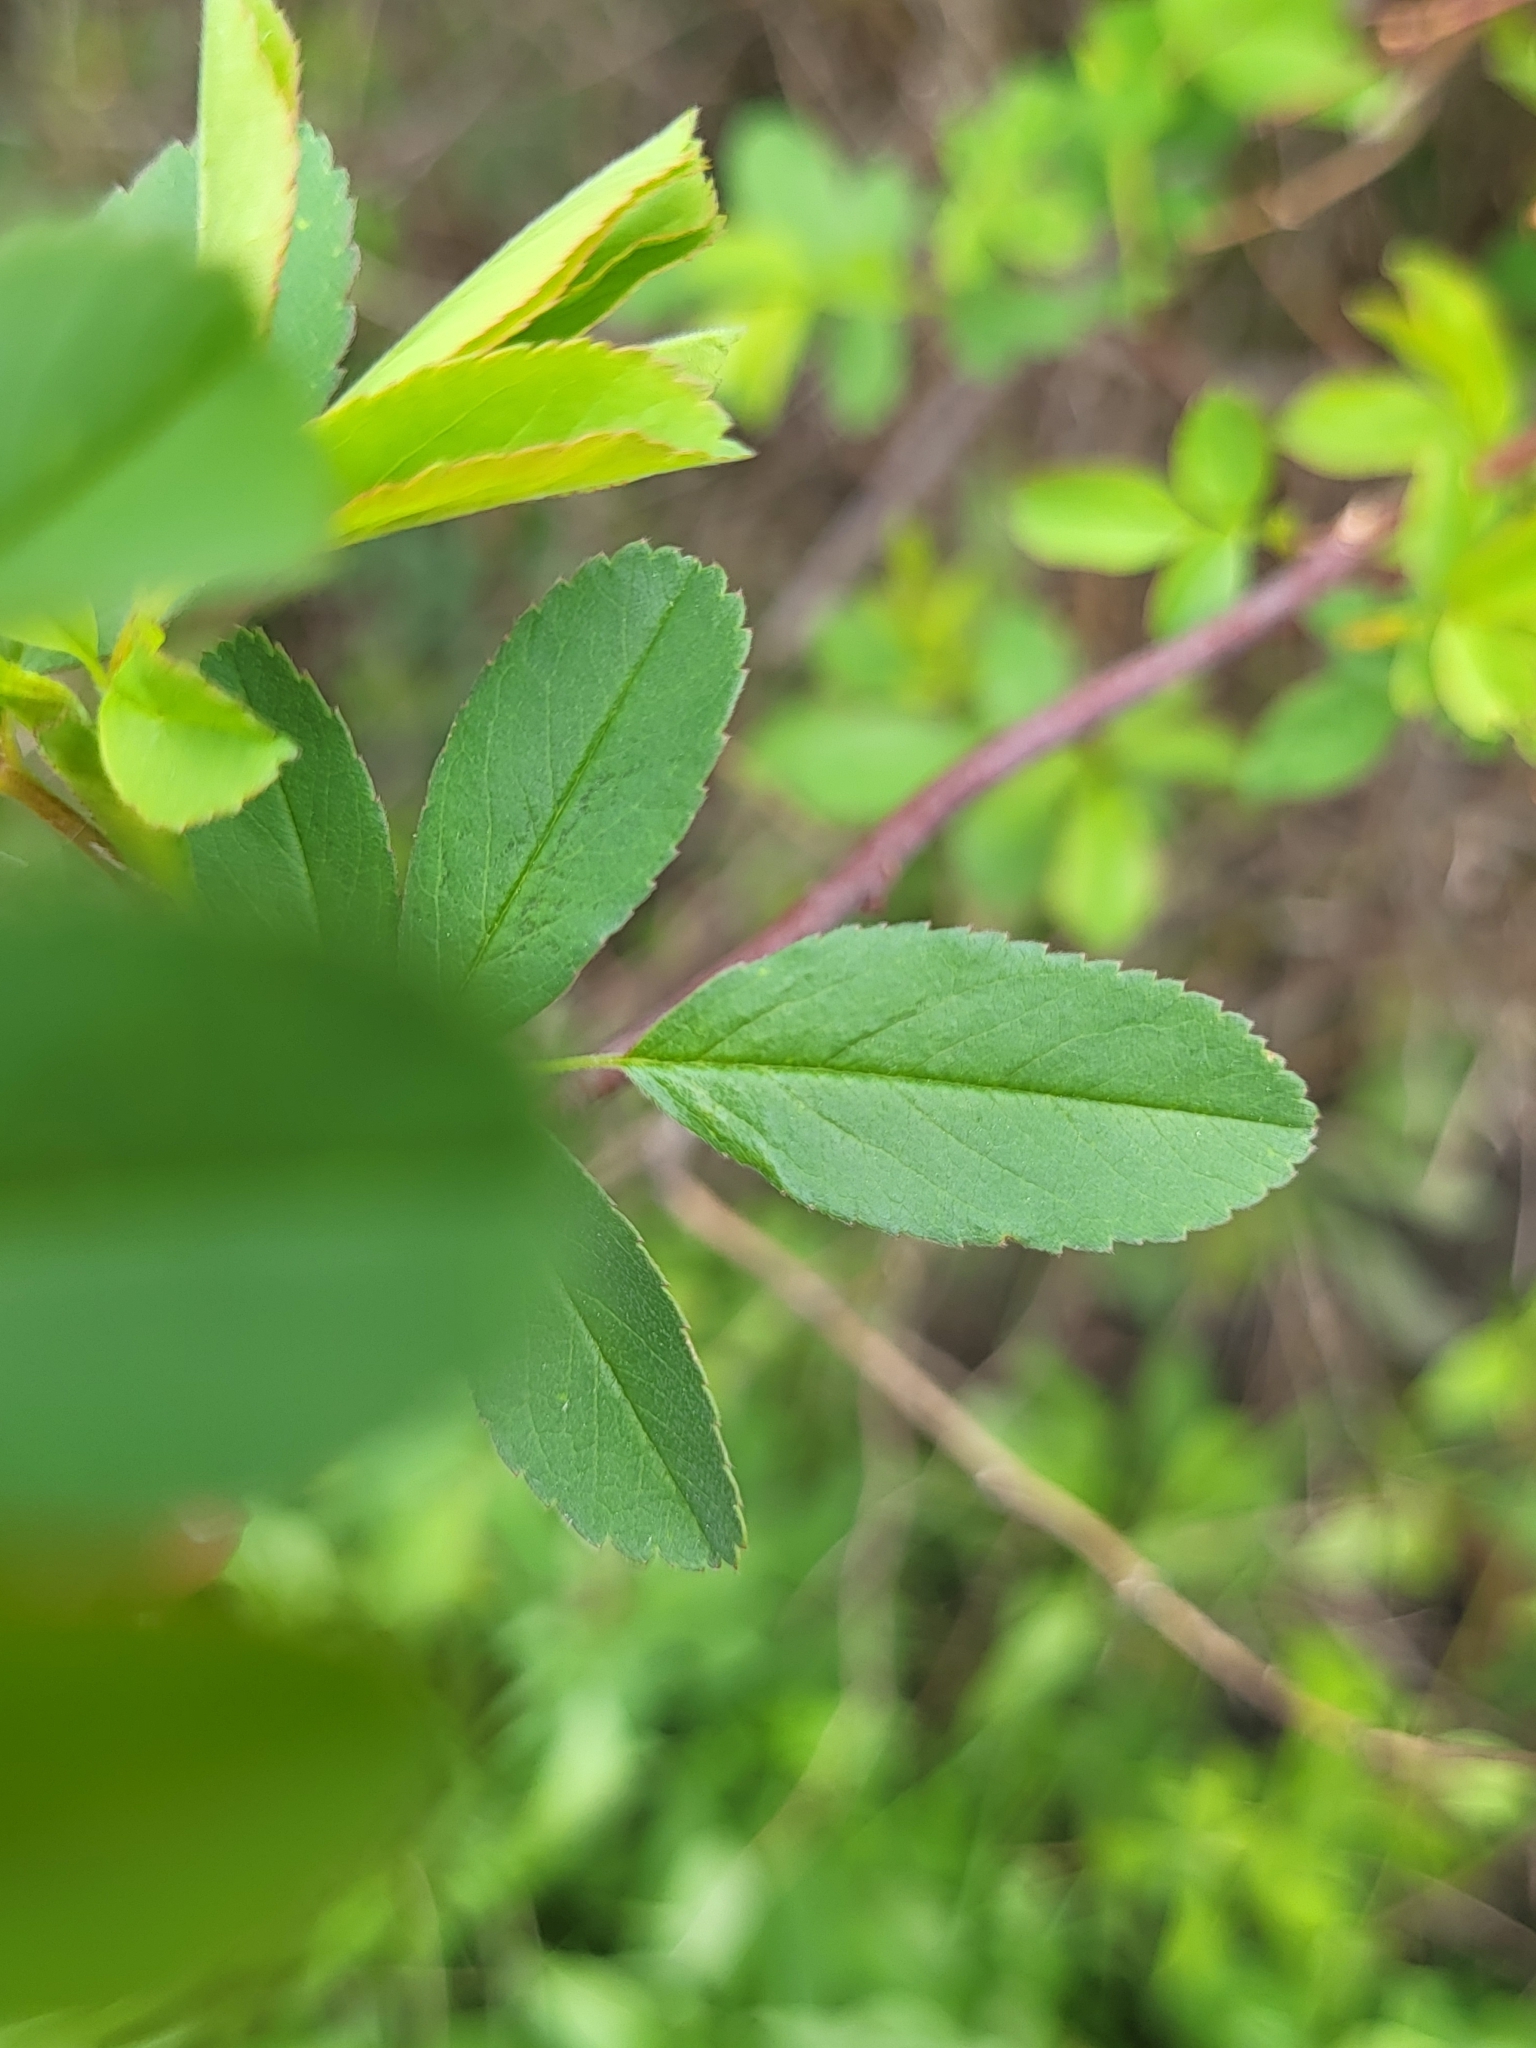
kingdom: Plantae
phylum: Tracheophyta
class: Magnoliopsida
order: Rosales
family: Rosaceae
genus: Rosa
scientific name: Rosa palustris
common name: Swamp rose
